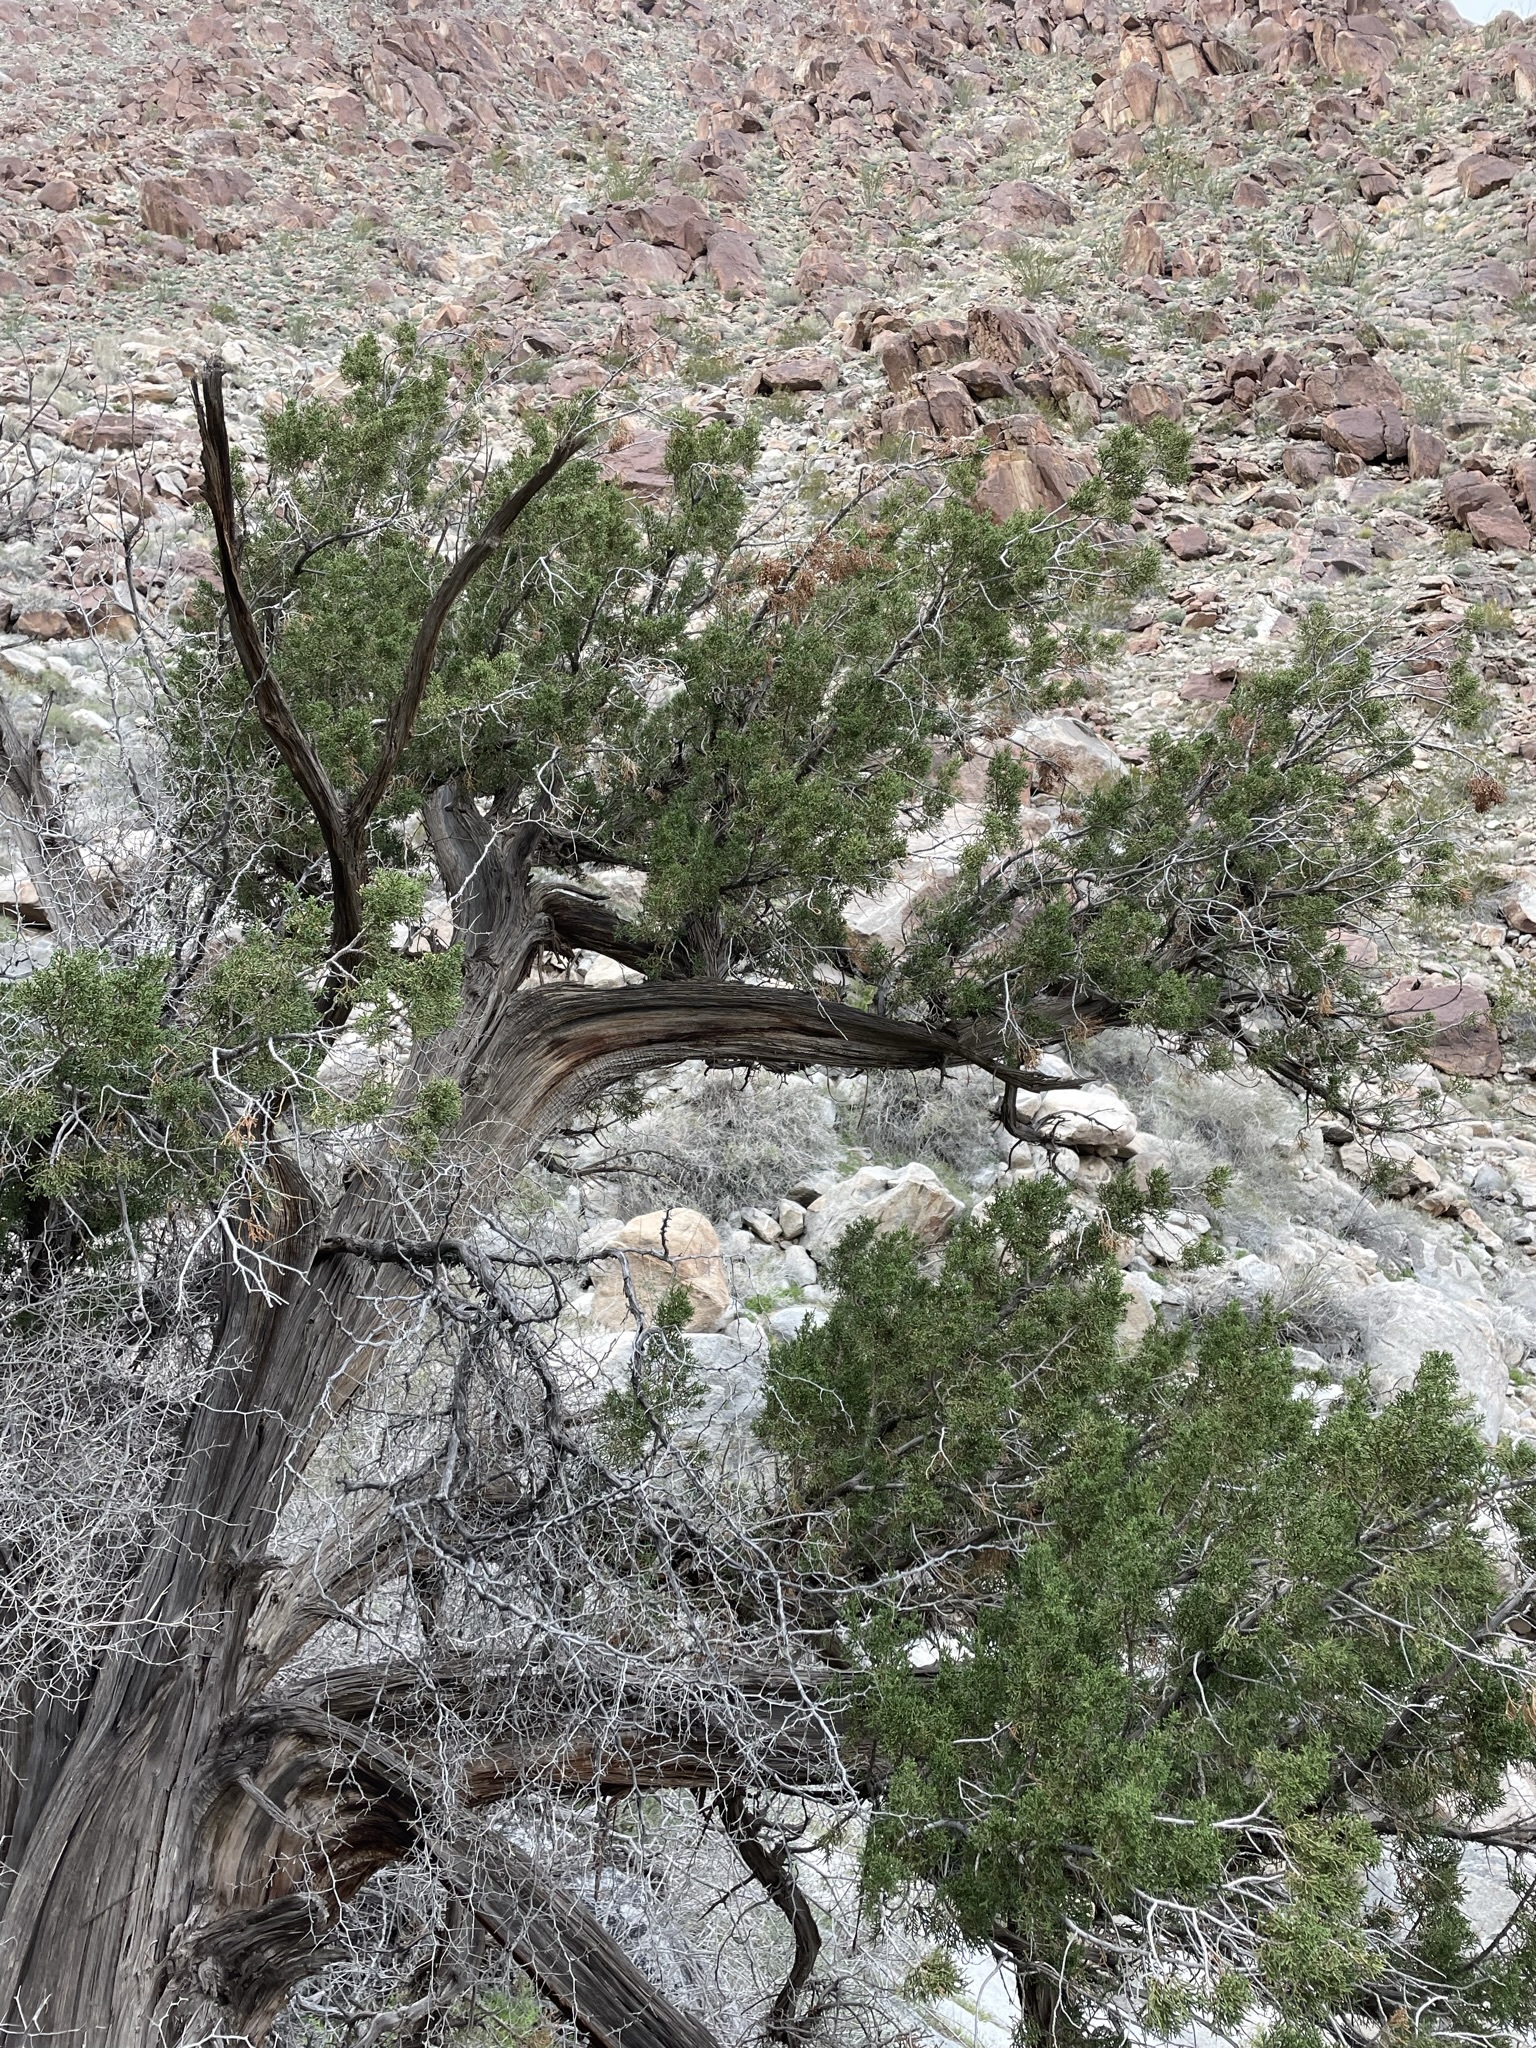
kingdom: Plantae
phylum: Tracheophyta
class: Pinopsida
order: Pinales
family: Cupressaceae
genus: Juniperus
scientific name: Juniperus californica
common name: California juniper
